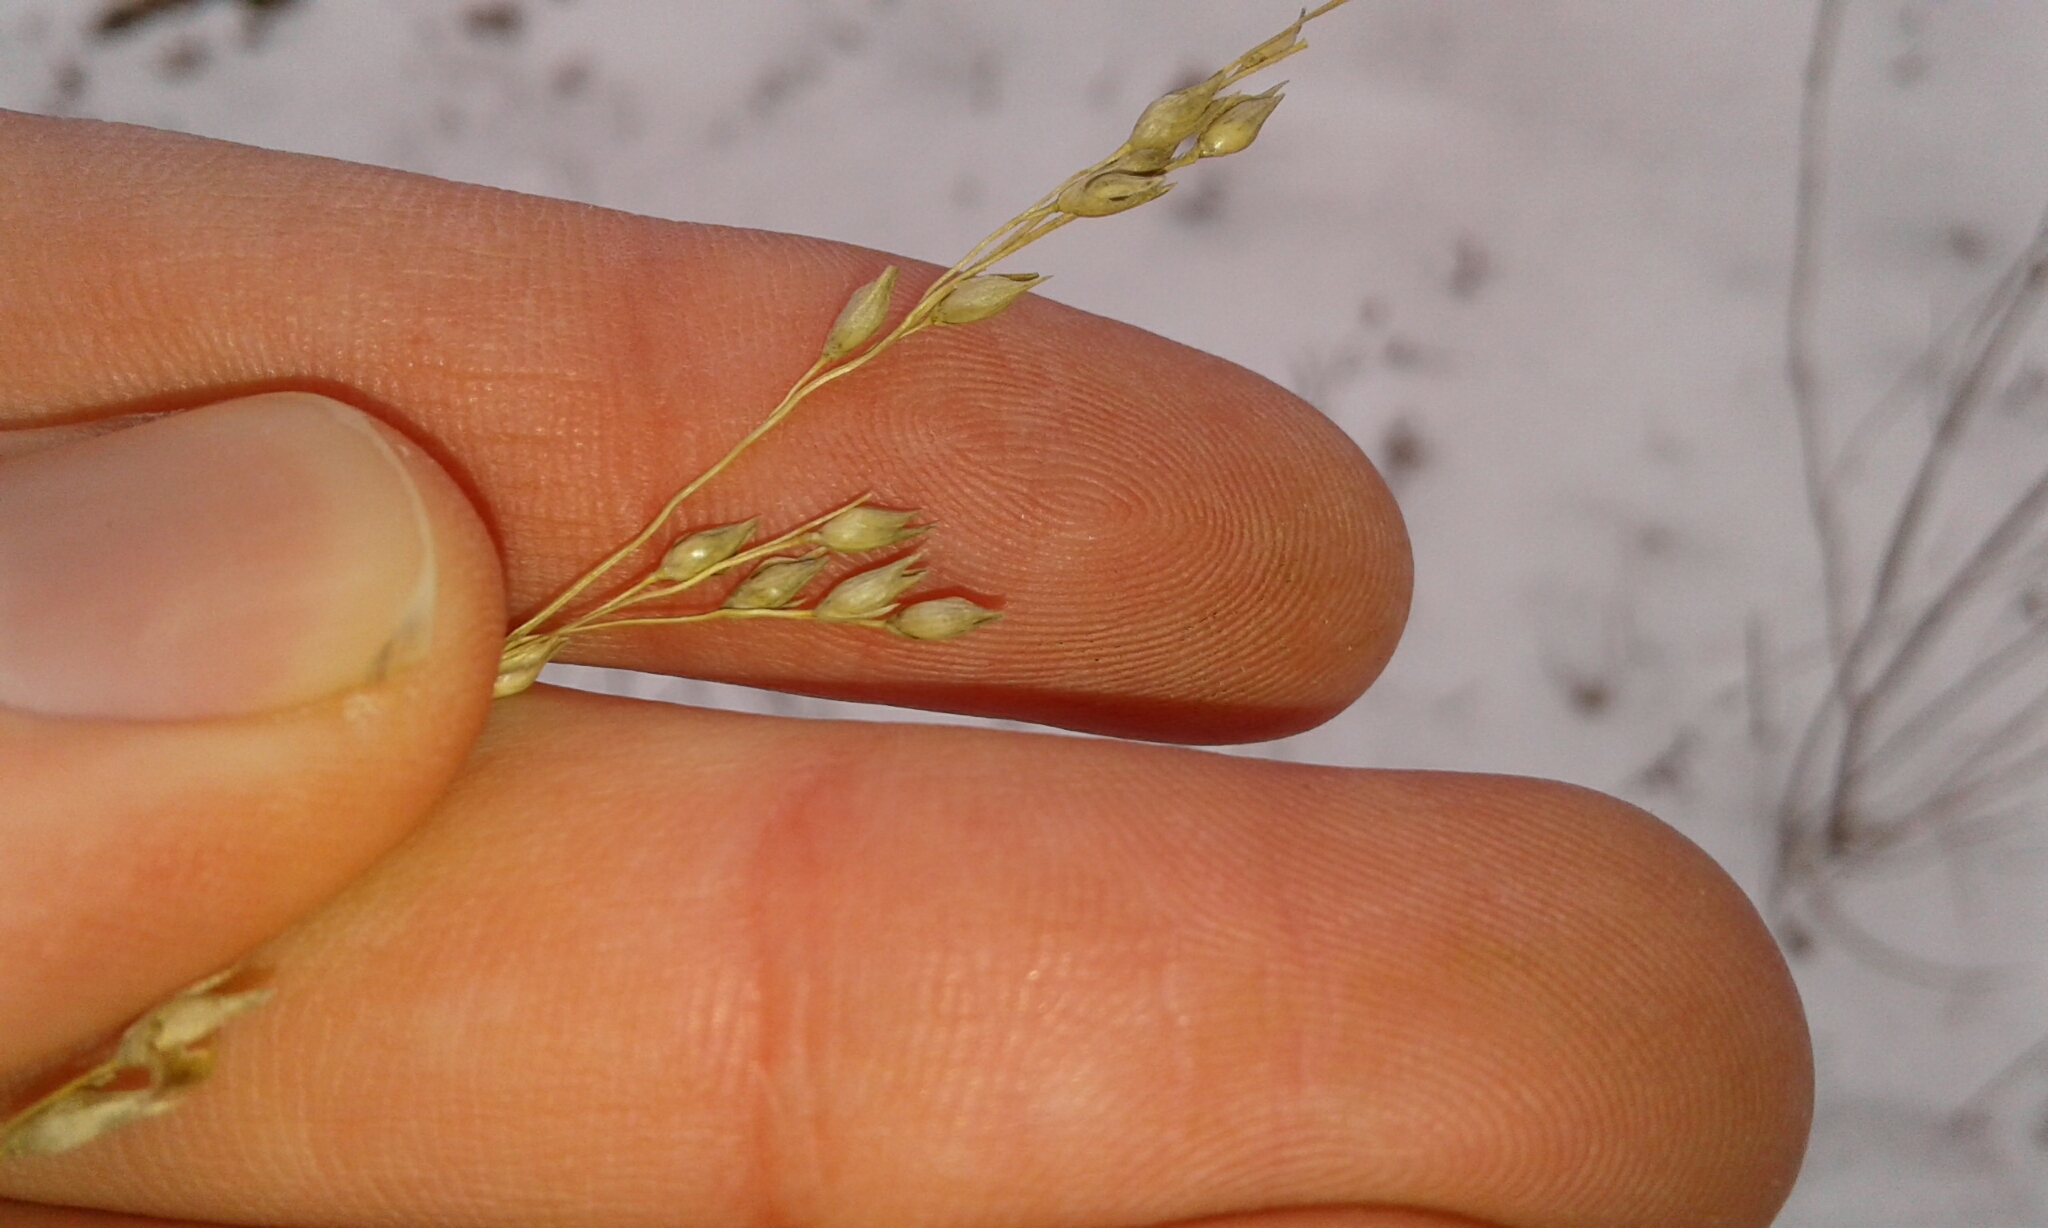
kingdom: Plantae
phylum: Tracheophyta
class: Liliopsida
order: Poales
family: Poaceae
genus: Panicum
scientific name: Panicum virgatum
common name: Switchgrass
